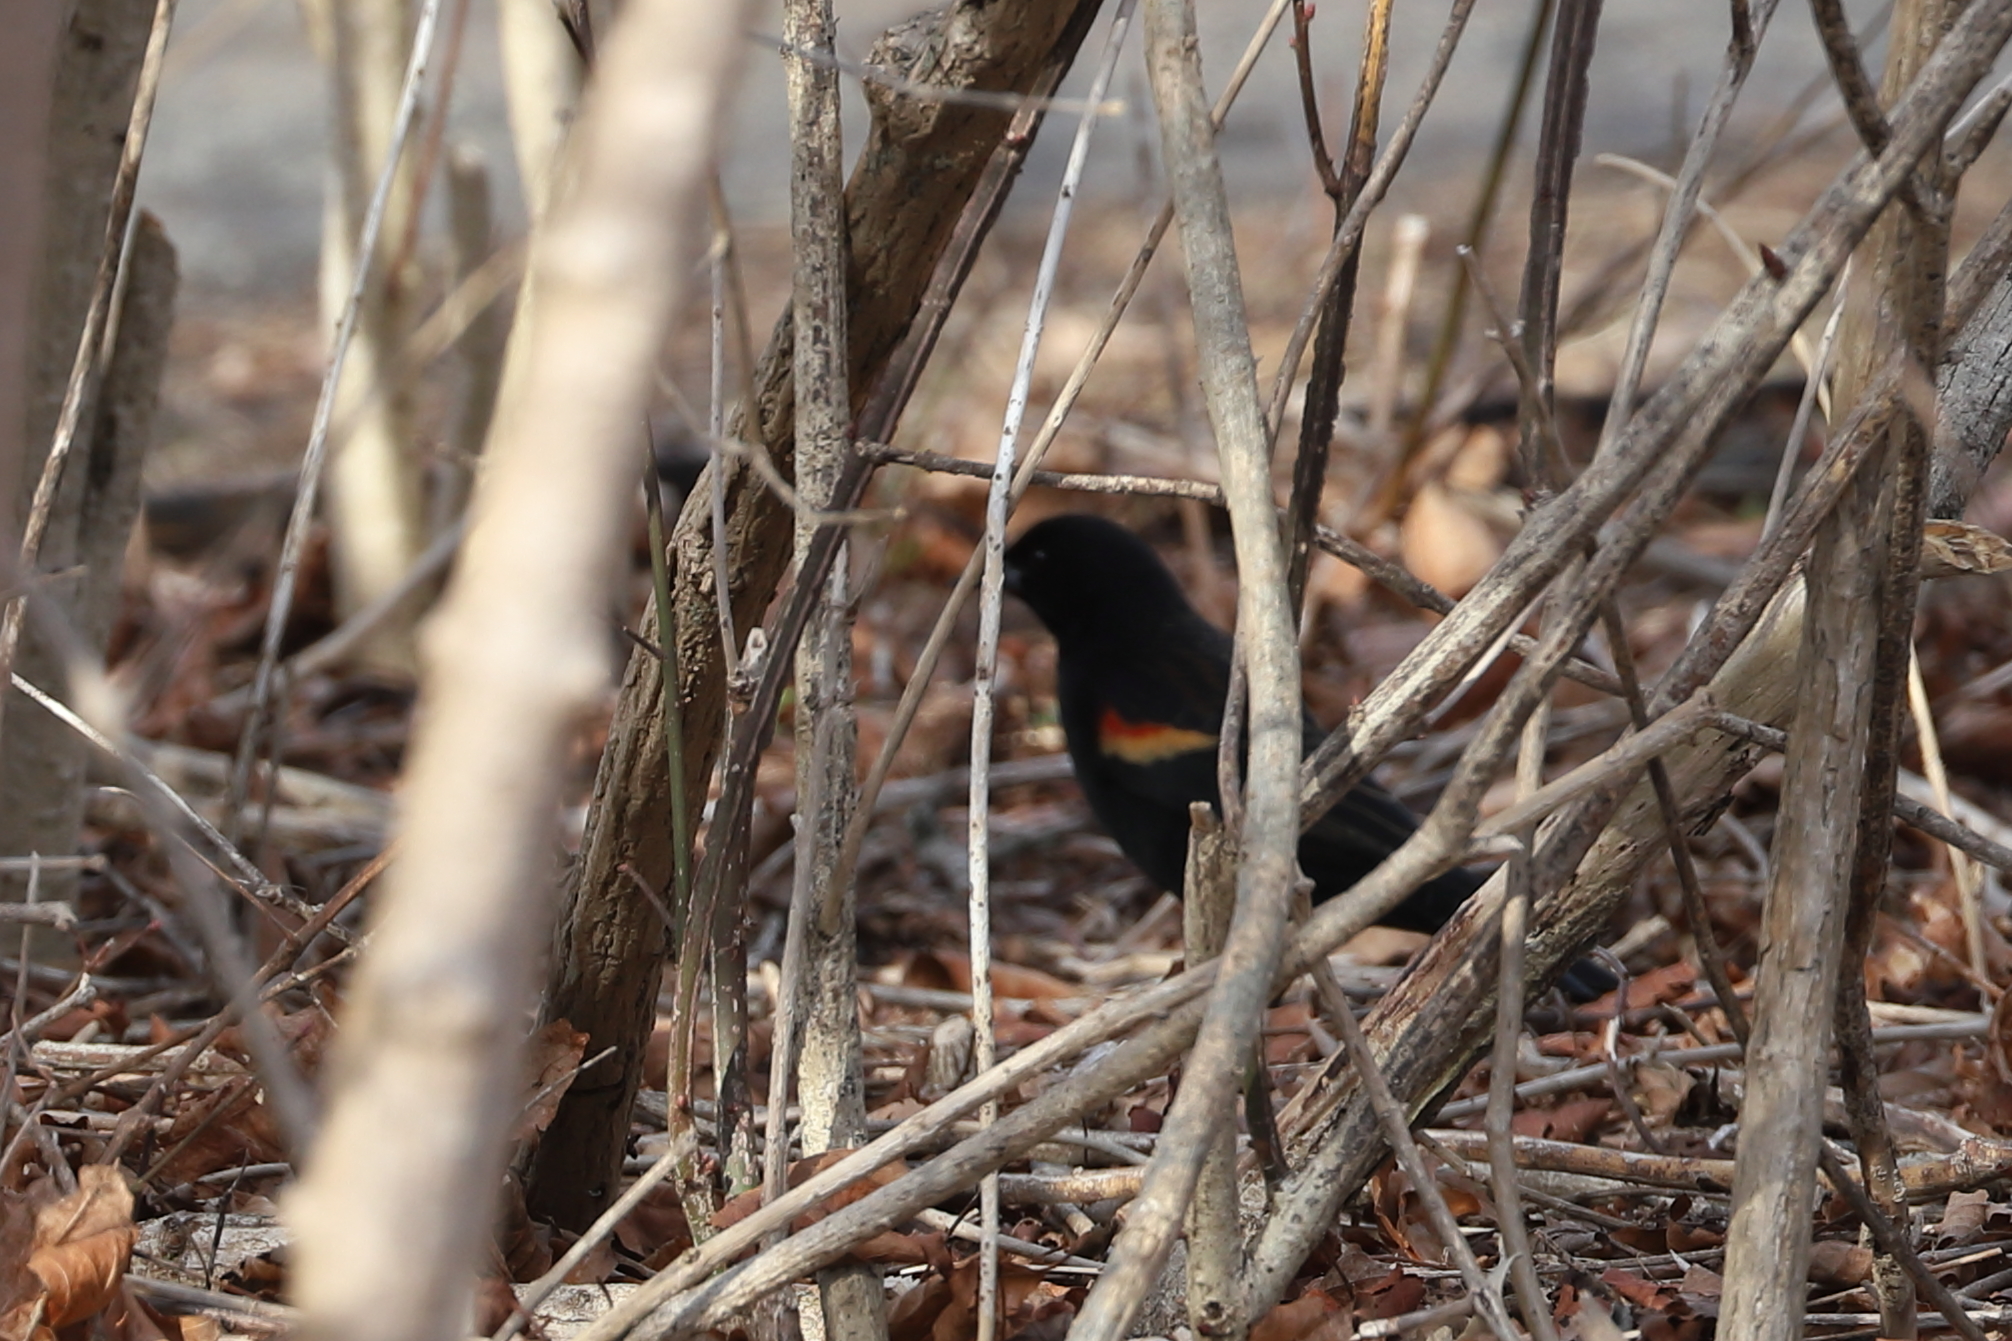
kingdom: Animalia
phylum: Chordata
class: Aves
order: Passeriformes
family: Icteridae
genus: Agelaius
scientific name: Agelaius phoeniceus
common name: Red-winged blackbird
